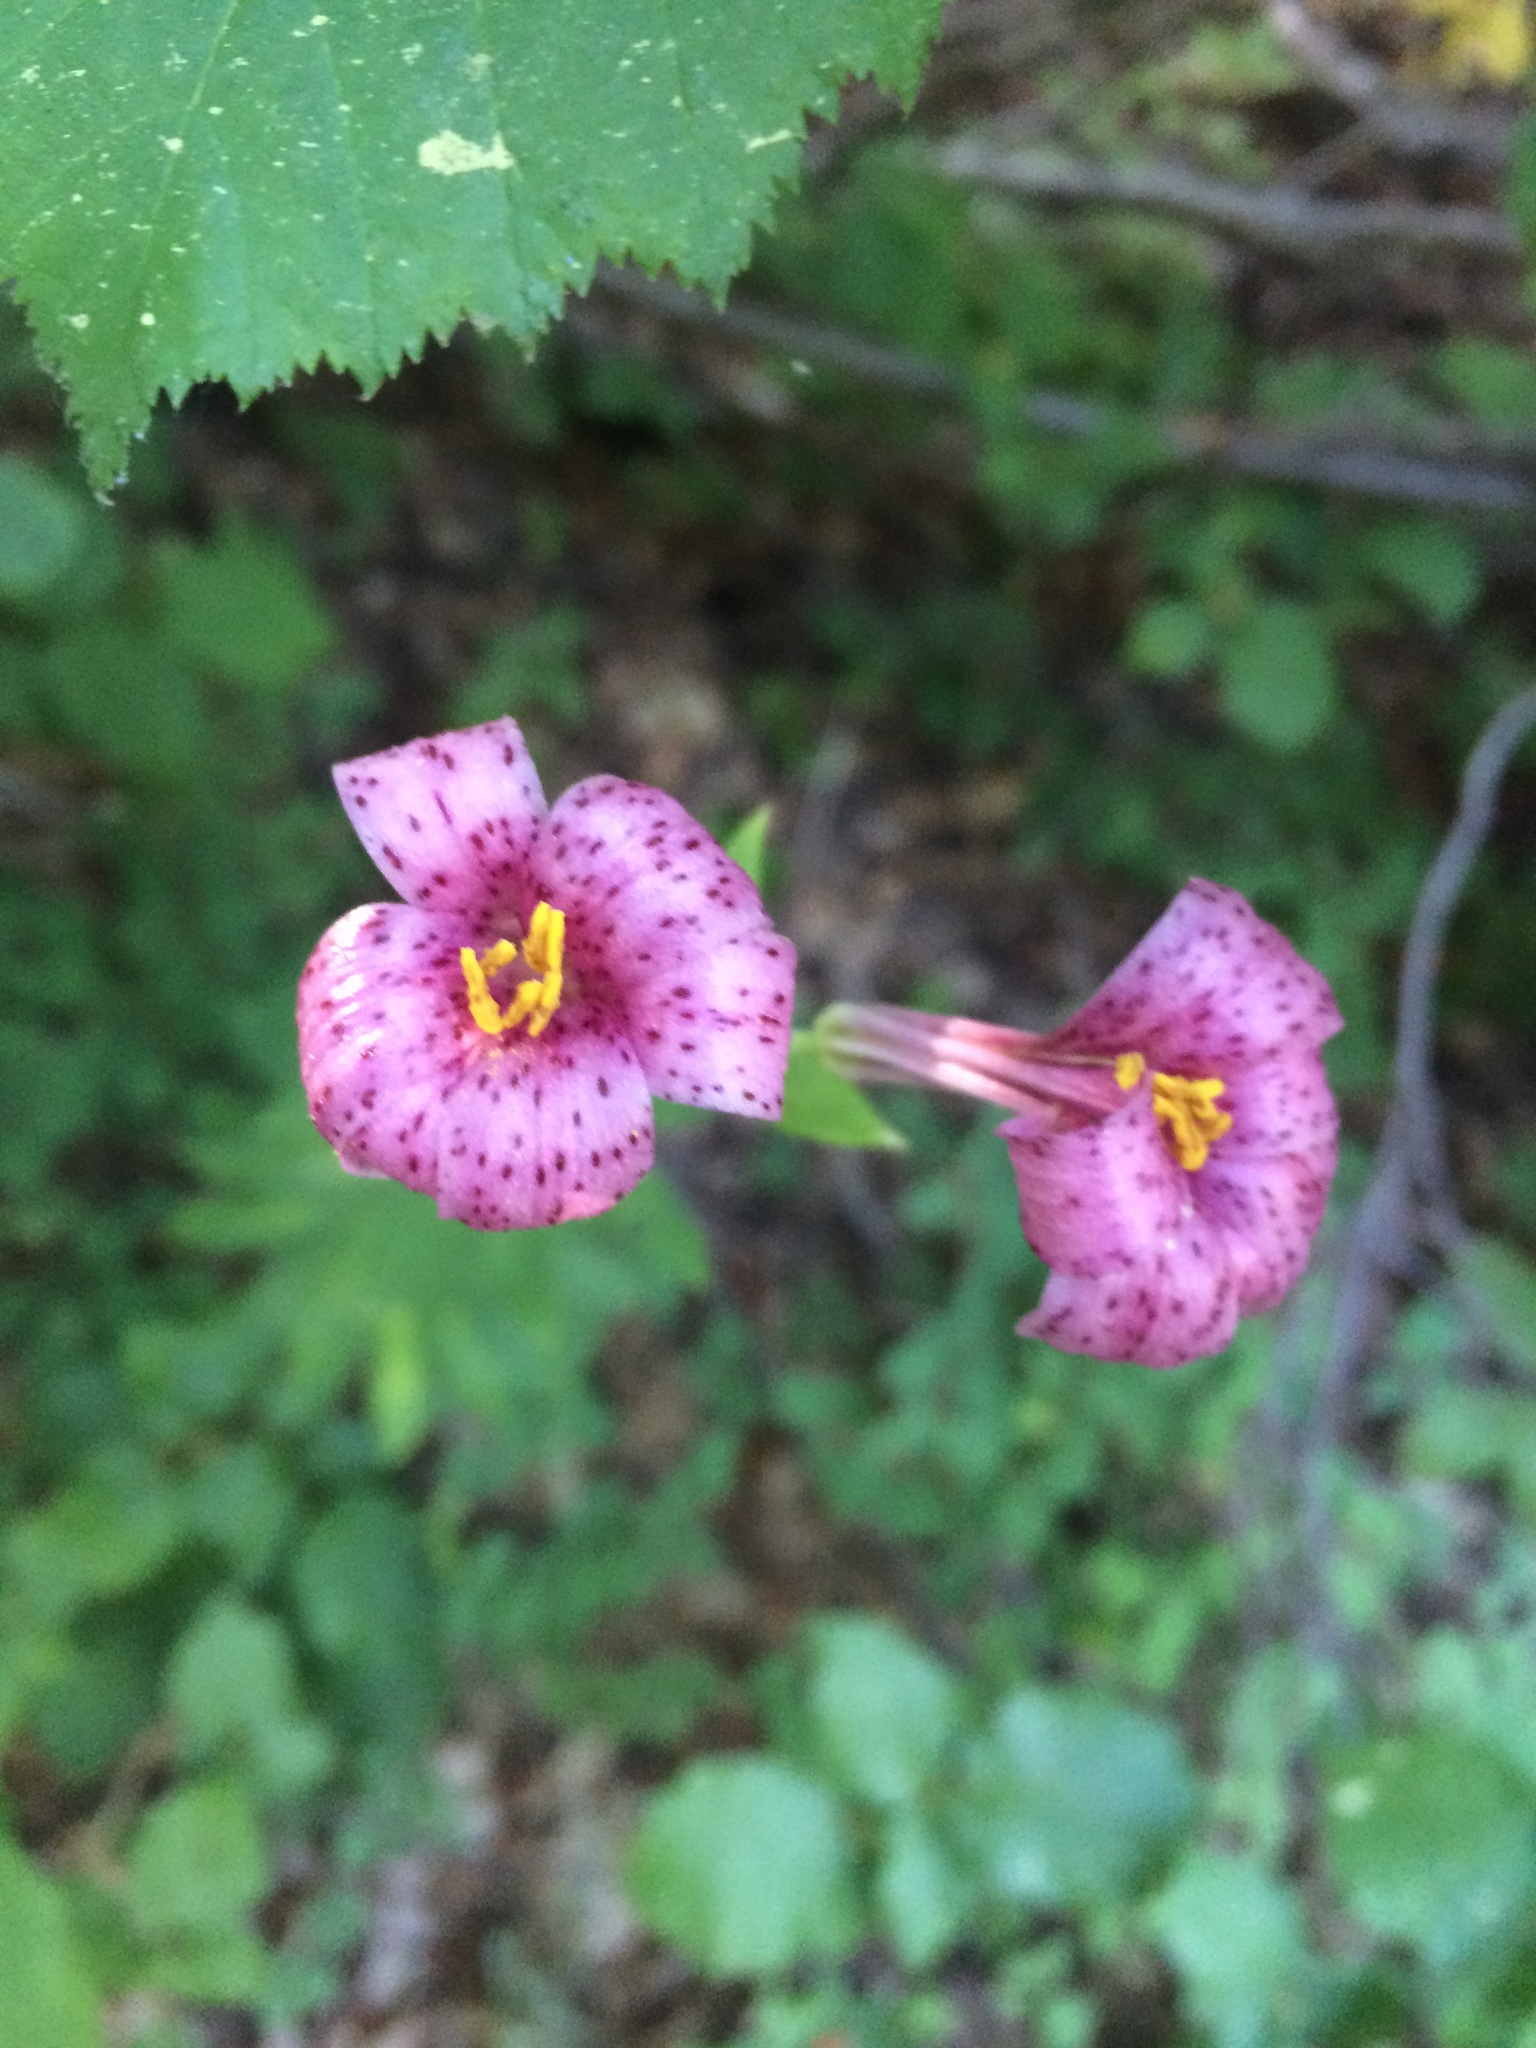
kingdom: Plantae
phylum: Tracheophyta
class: Liliopsida
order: Liliales
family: Liliaceae
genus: Lilium
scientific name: Lilium rubescens
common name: Chamise lily
